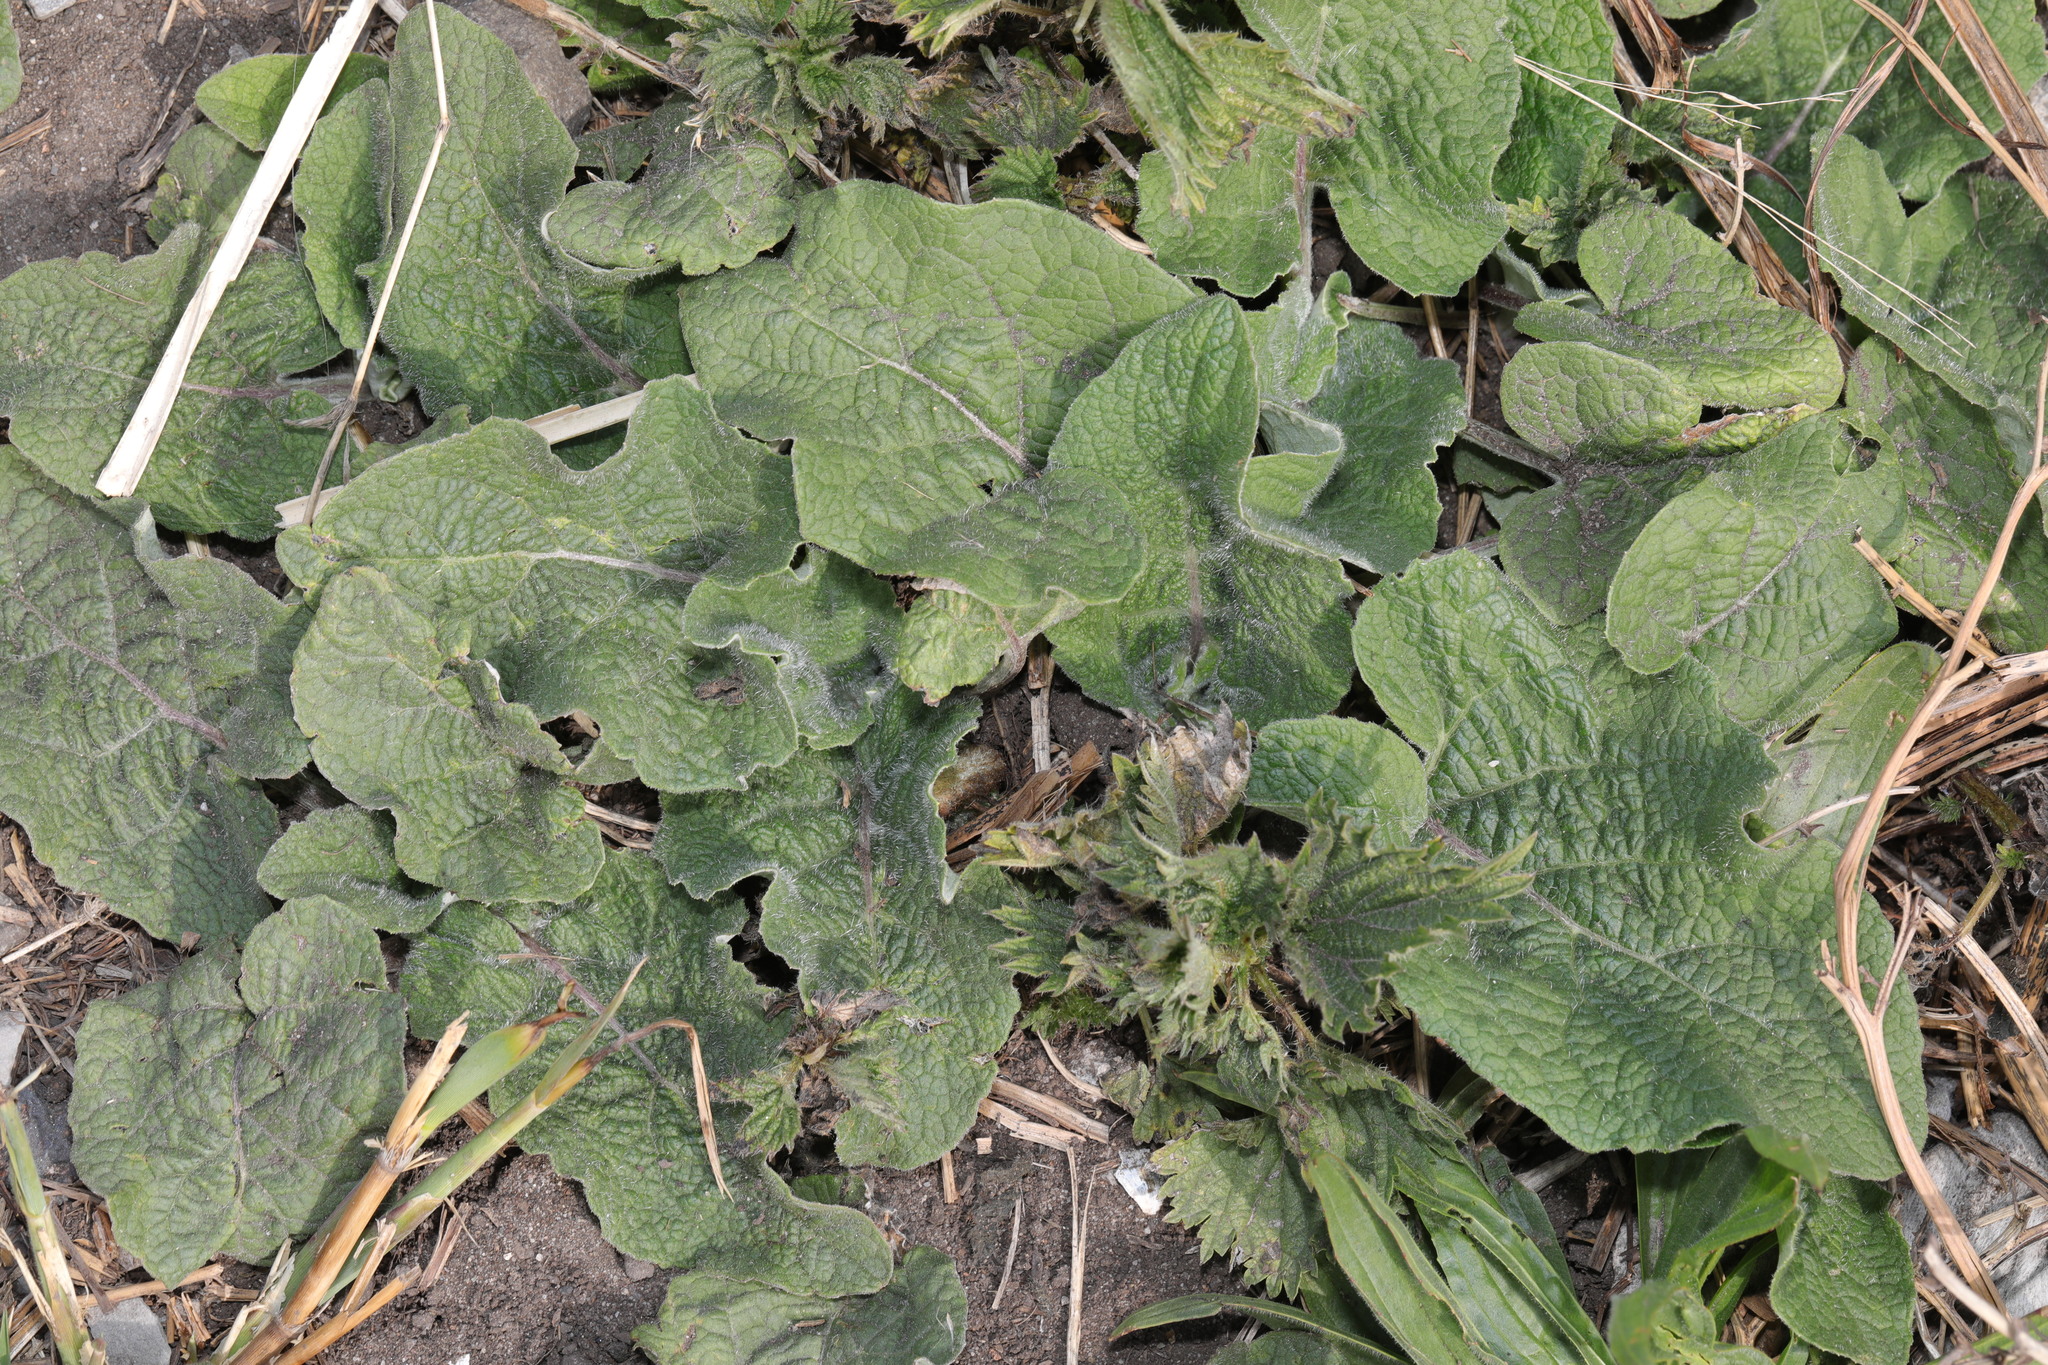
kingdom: Plantae
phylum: Tracheophyta
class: Magnoliopsida
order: Asterales
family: Asteraceae
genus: Arctium
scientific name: Arctium minus
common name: Lesser burdock
